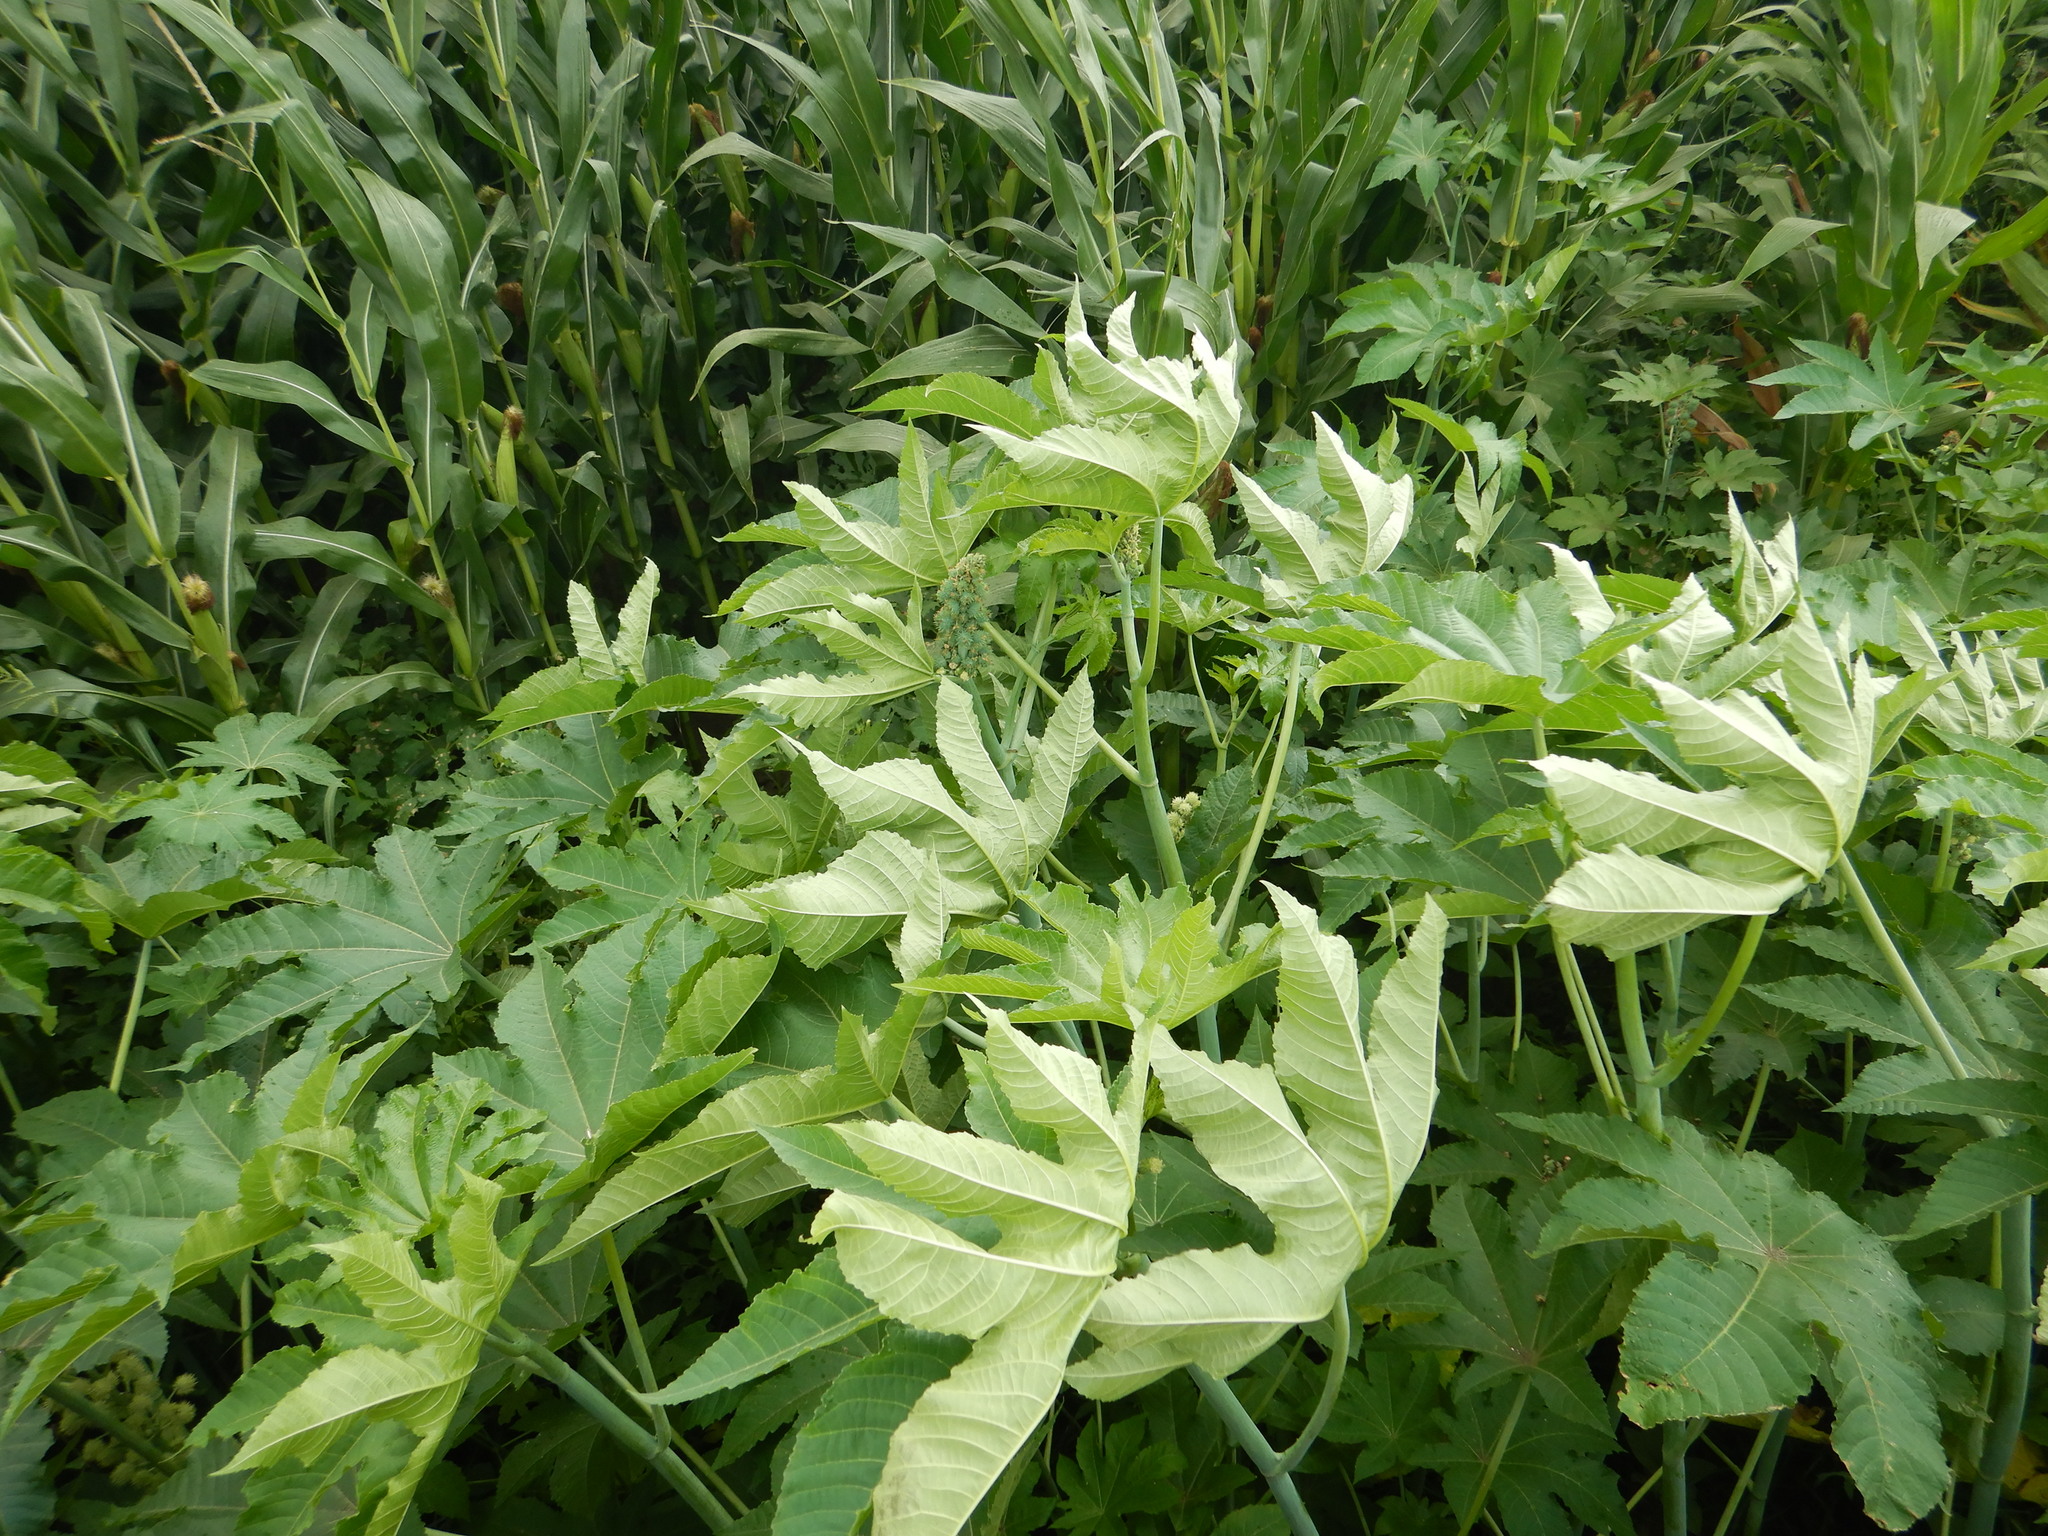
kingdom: Plantae
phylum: Tracheophyta
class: Magnoliopsida
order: Malpighiales
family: Euphorbiaceae
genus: Ricinus
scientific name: Ricinus communis
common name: Castor-oil-plant
